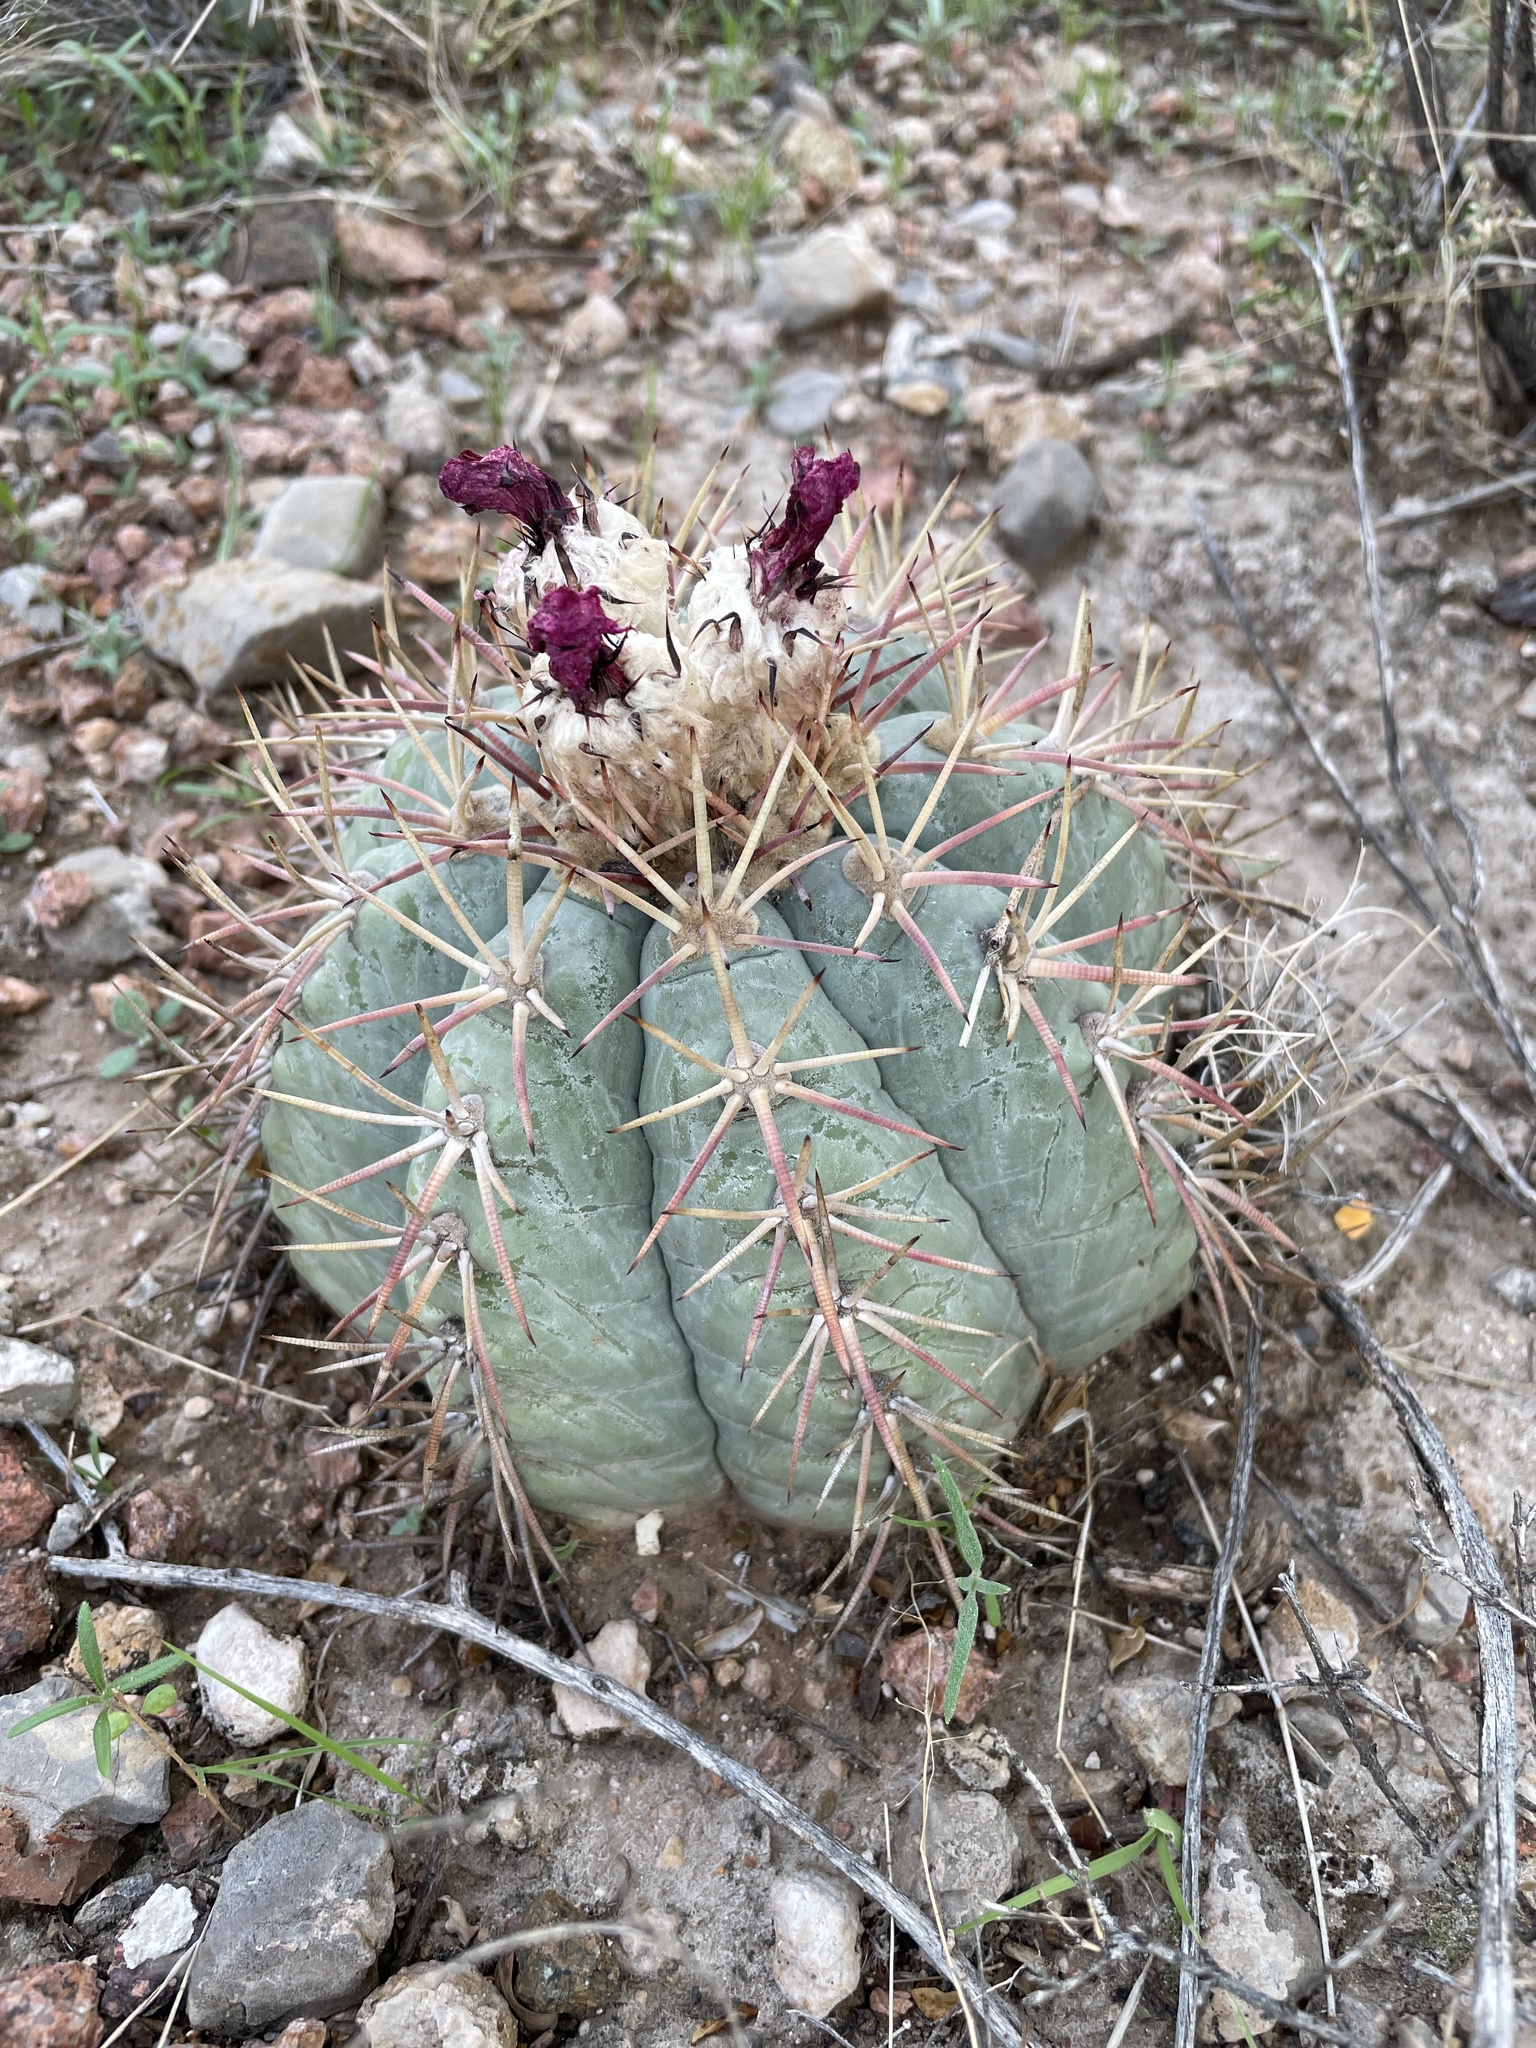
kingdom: Plantae
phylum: Tracheophyta
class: Magnoliopsida
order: Caryophyllales
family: Cactaceae
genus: Echinocactus
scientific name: Echinocactus horizonthalonius
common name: Devilshead
